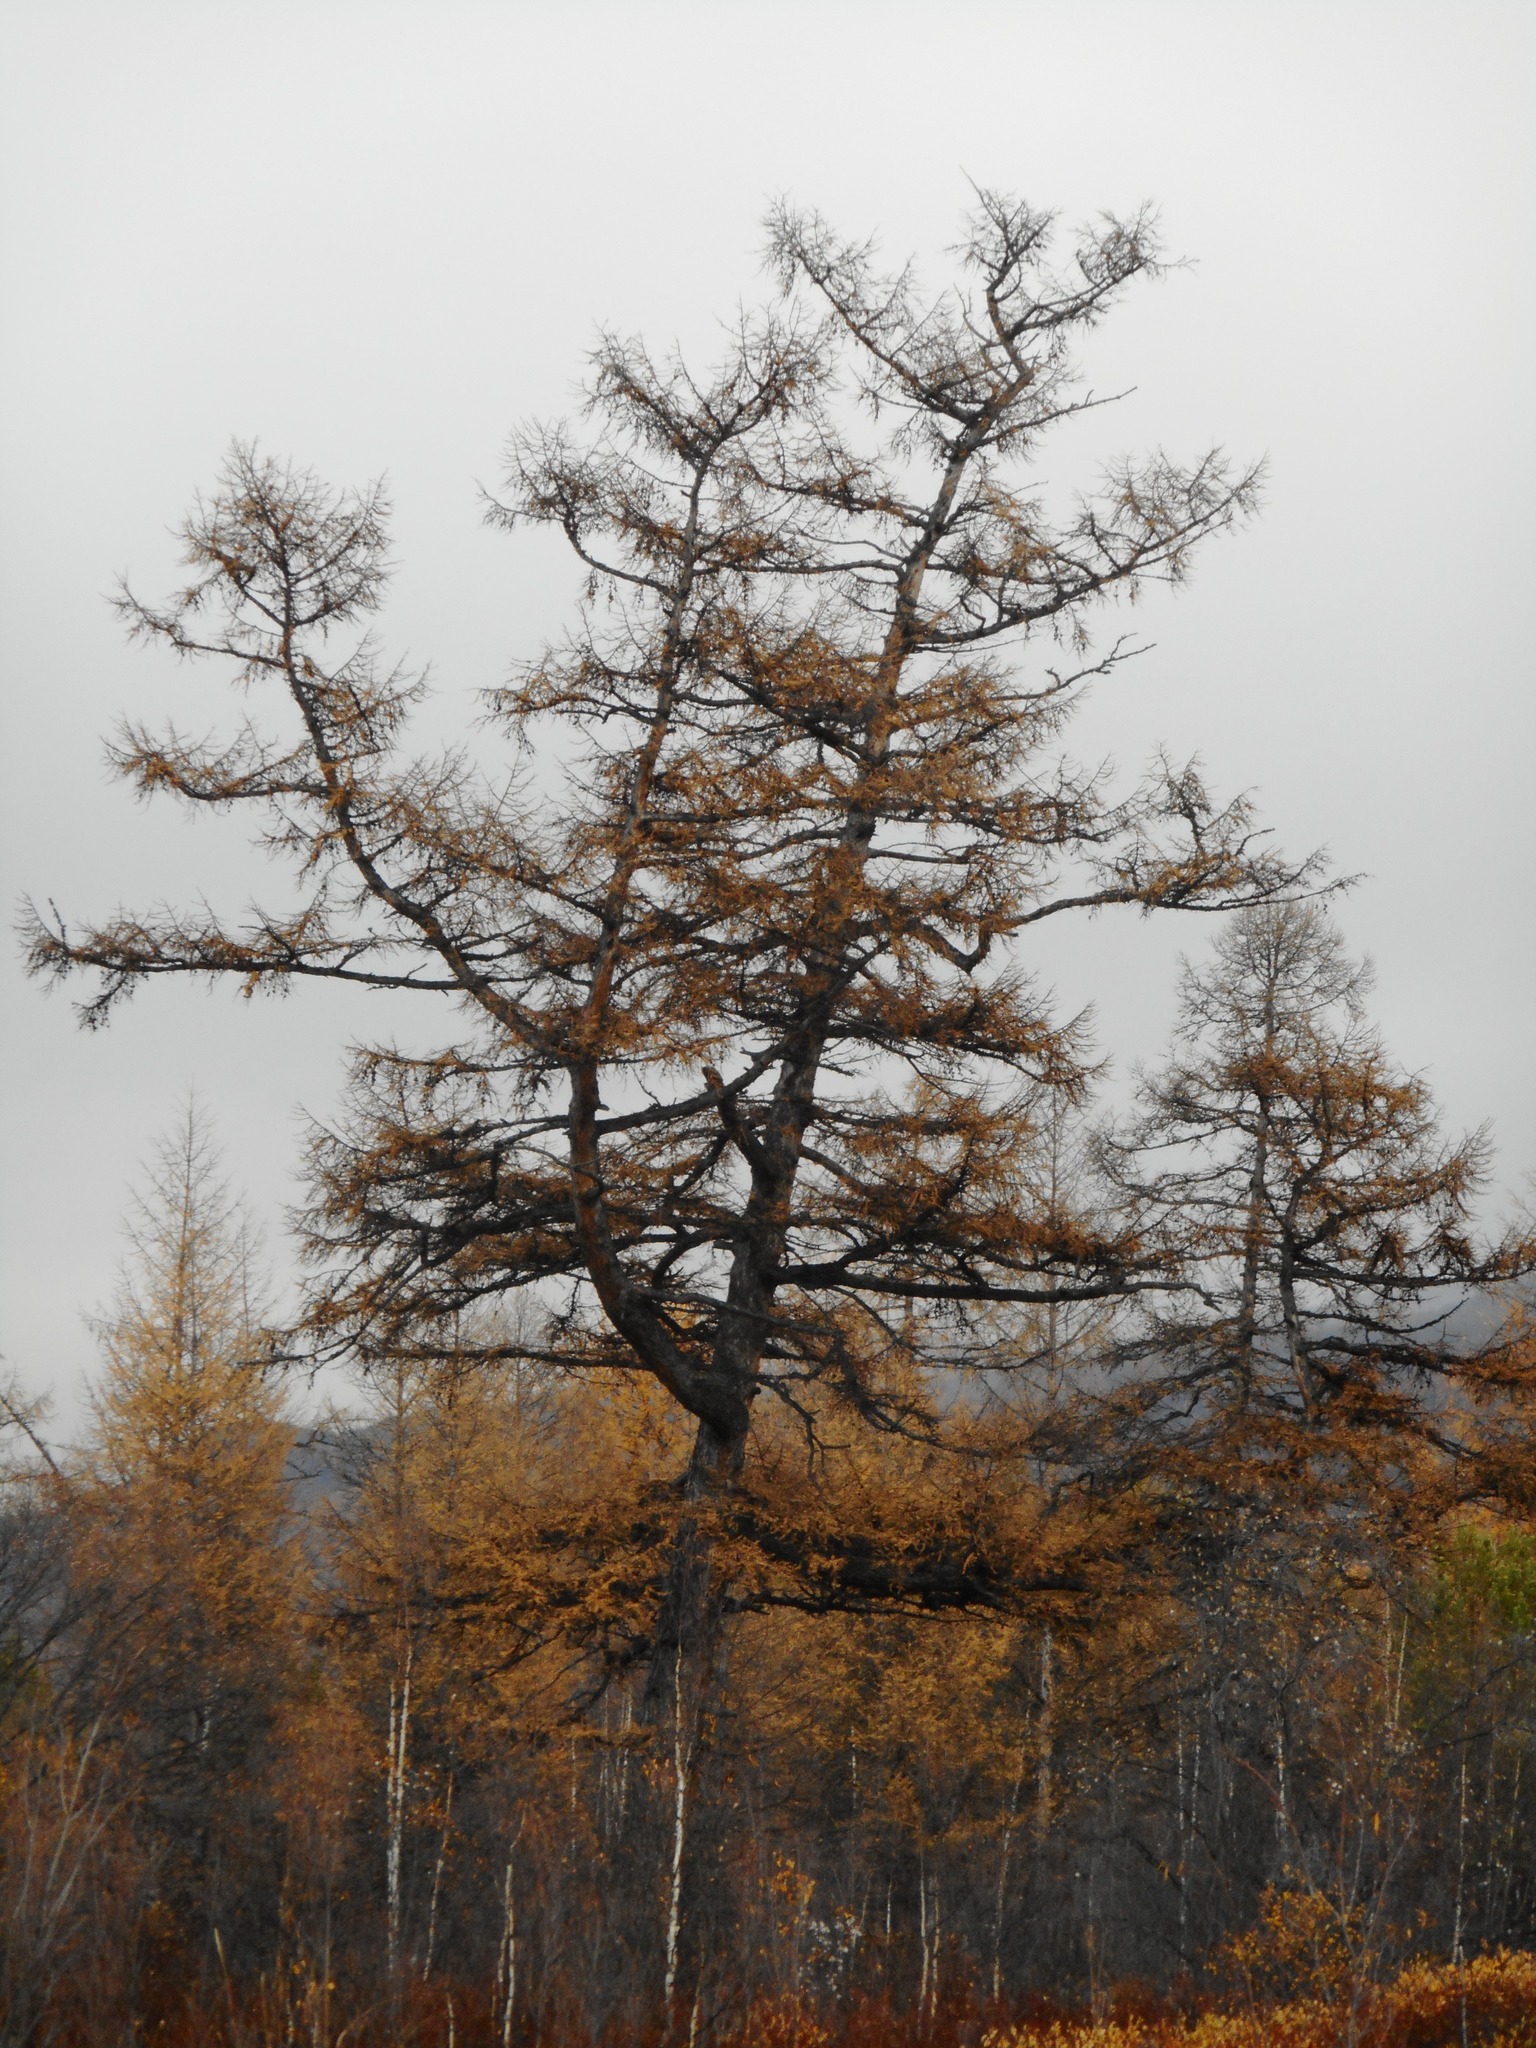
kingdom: Plantae
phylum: Tracheophyta
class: Pinopsida
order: Pinales
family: Pinaceae
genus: Larix
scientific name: Larix gmelinii
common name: Dahurian larch
